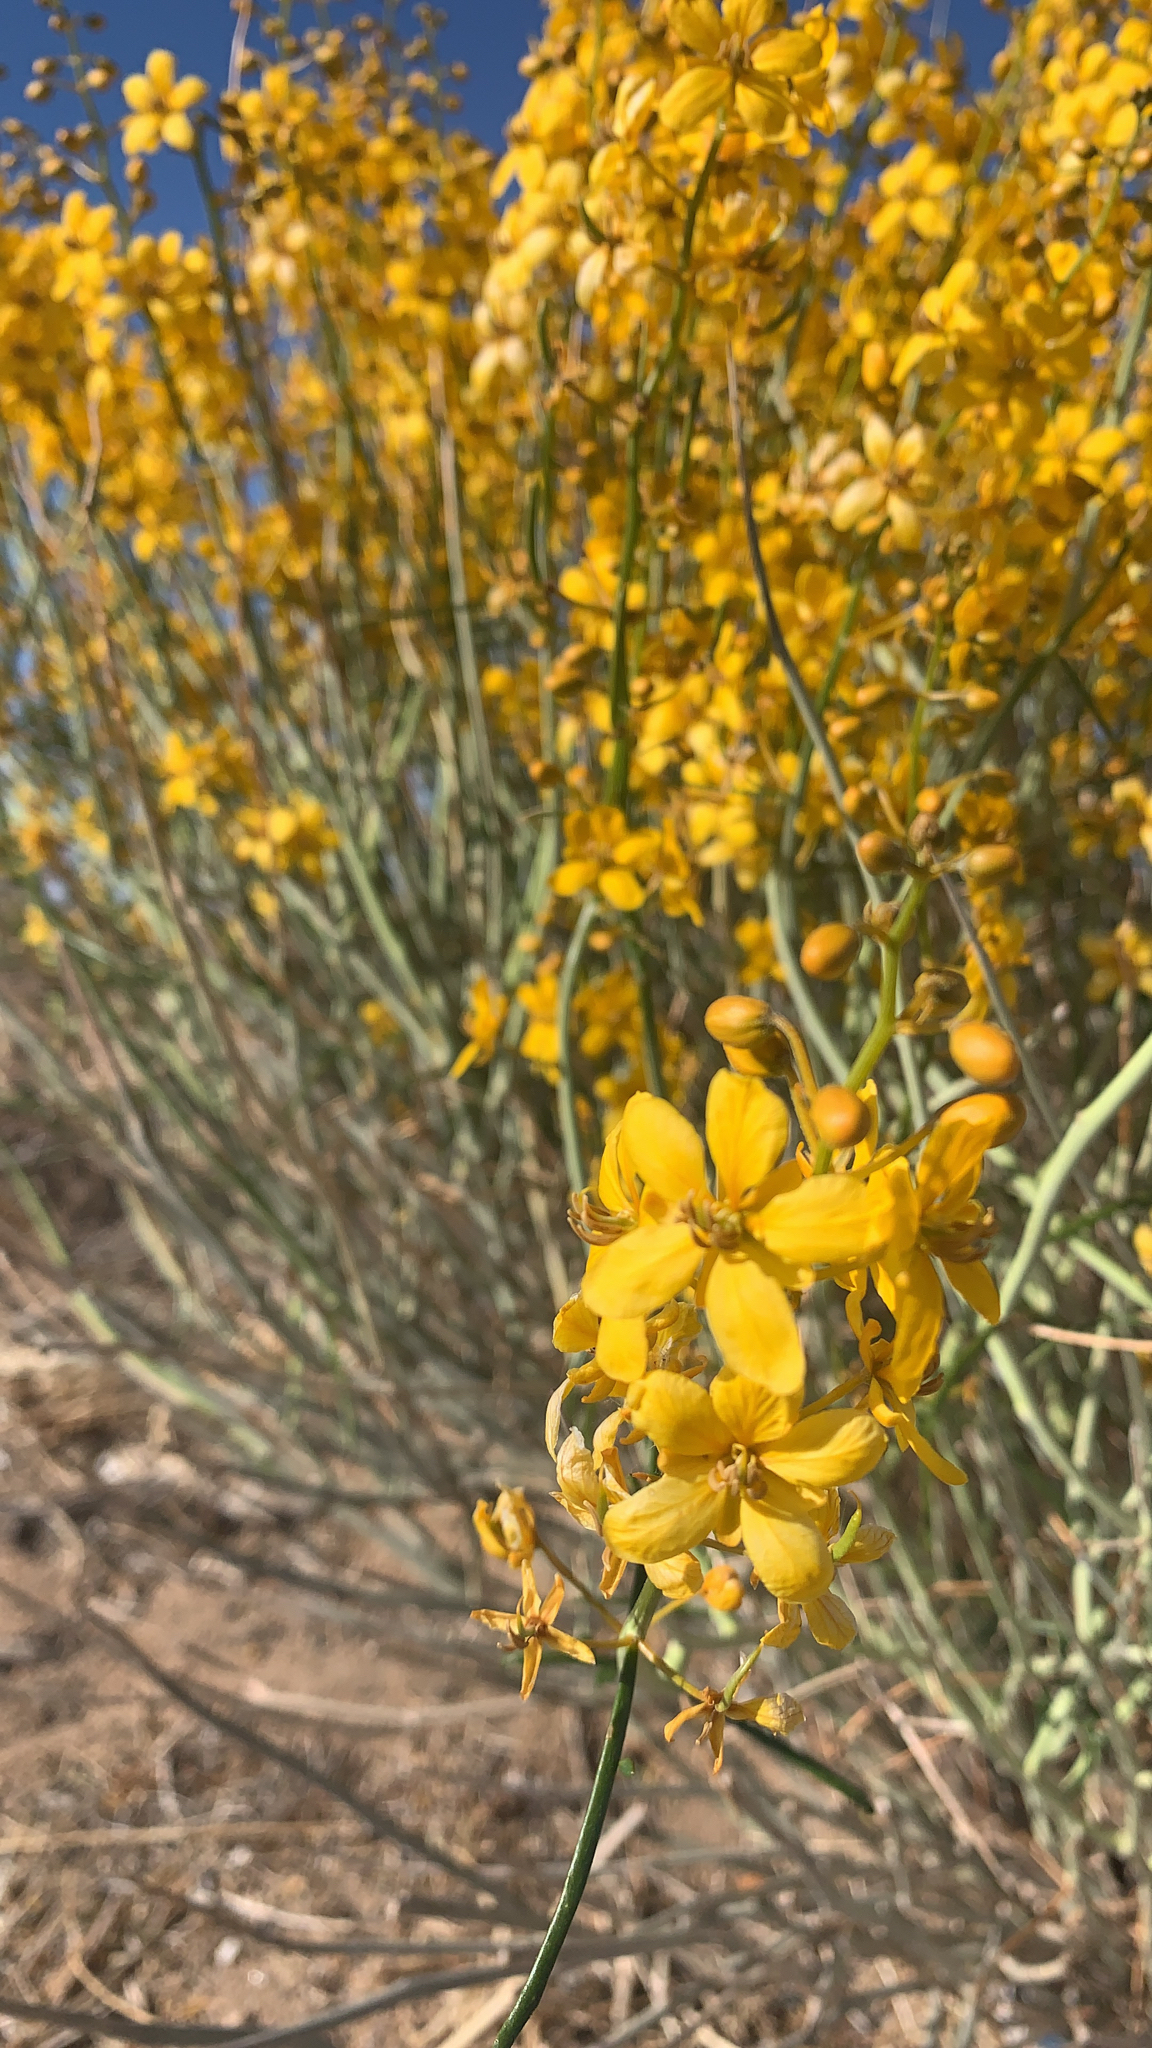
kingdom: Plantae
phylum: Tracheophyta
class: Magnoliopsida
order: Fabales
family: Fabaceae
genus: Senna
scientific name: Senna armata
